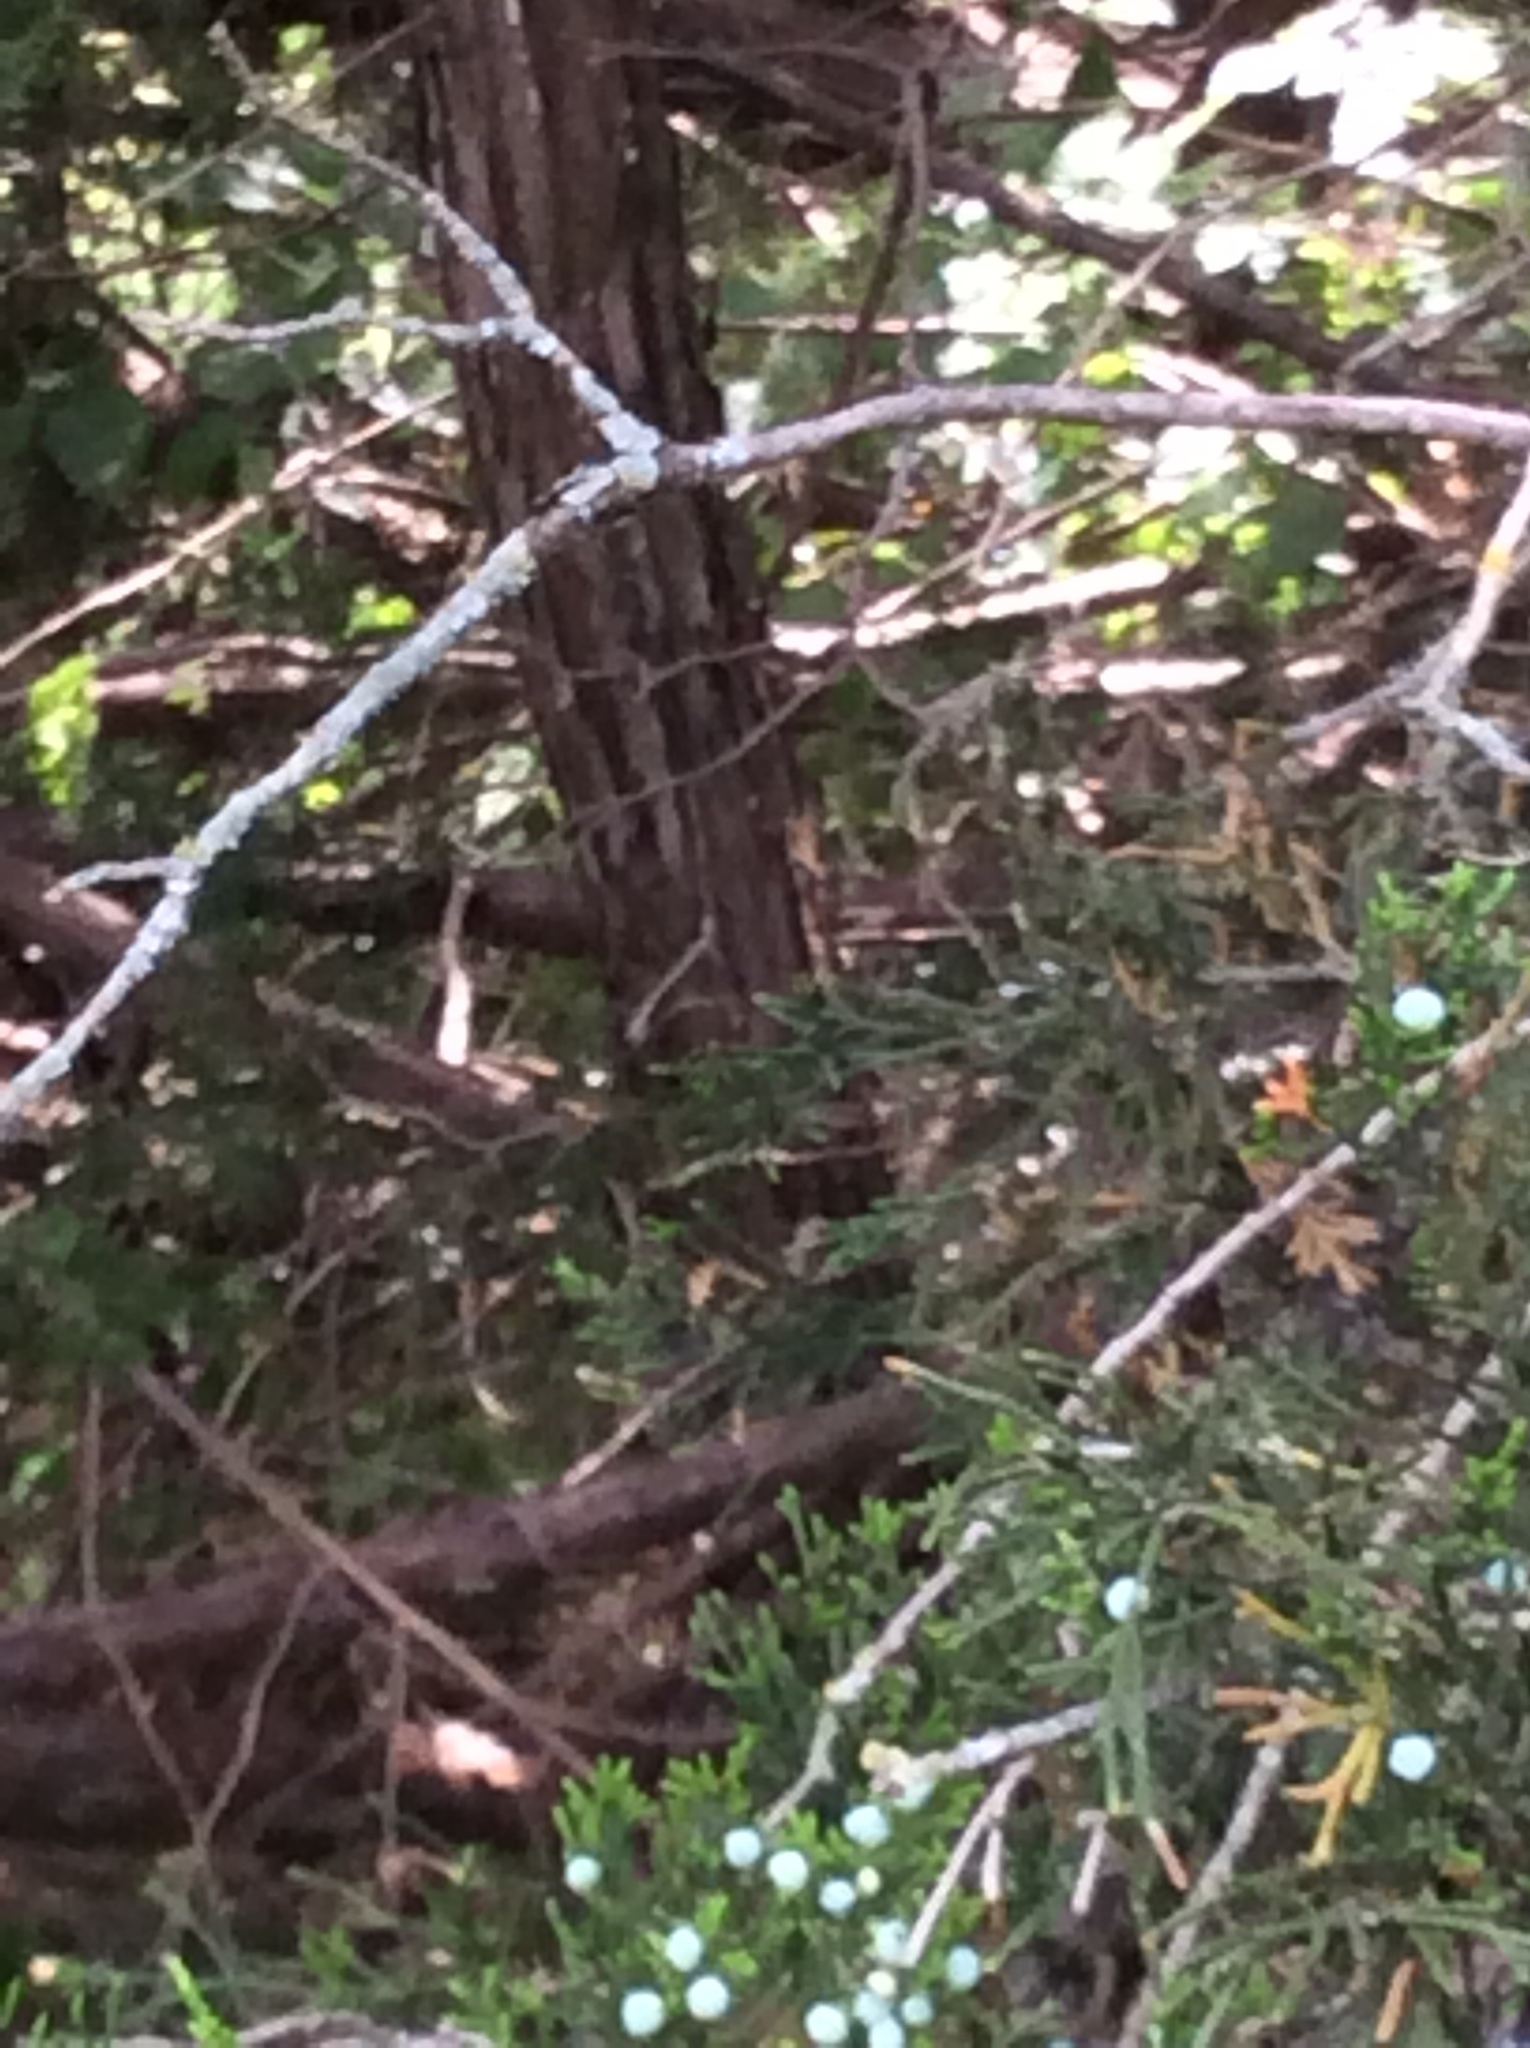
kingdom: Plantae
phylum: Tracheophyta
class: Pinopsida
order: Pinales
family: Cupressaceae
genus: Juniperus
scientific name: Juniperus ashei
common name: Mexican juniper
